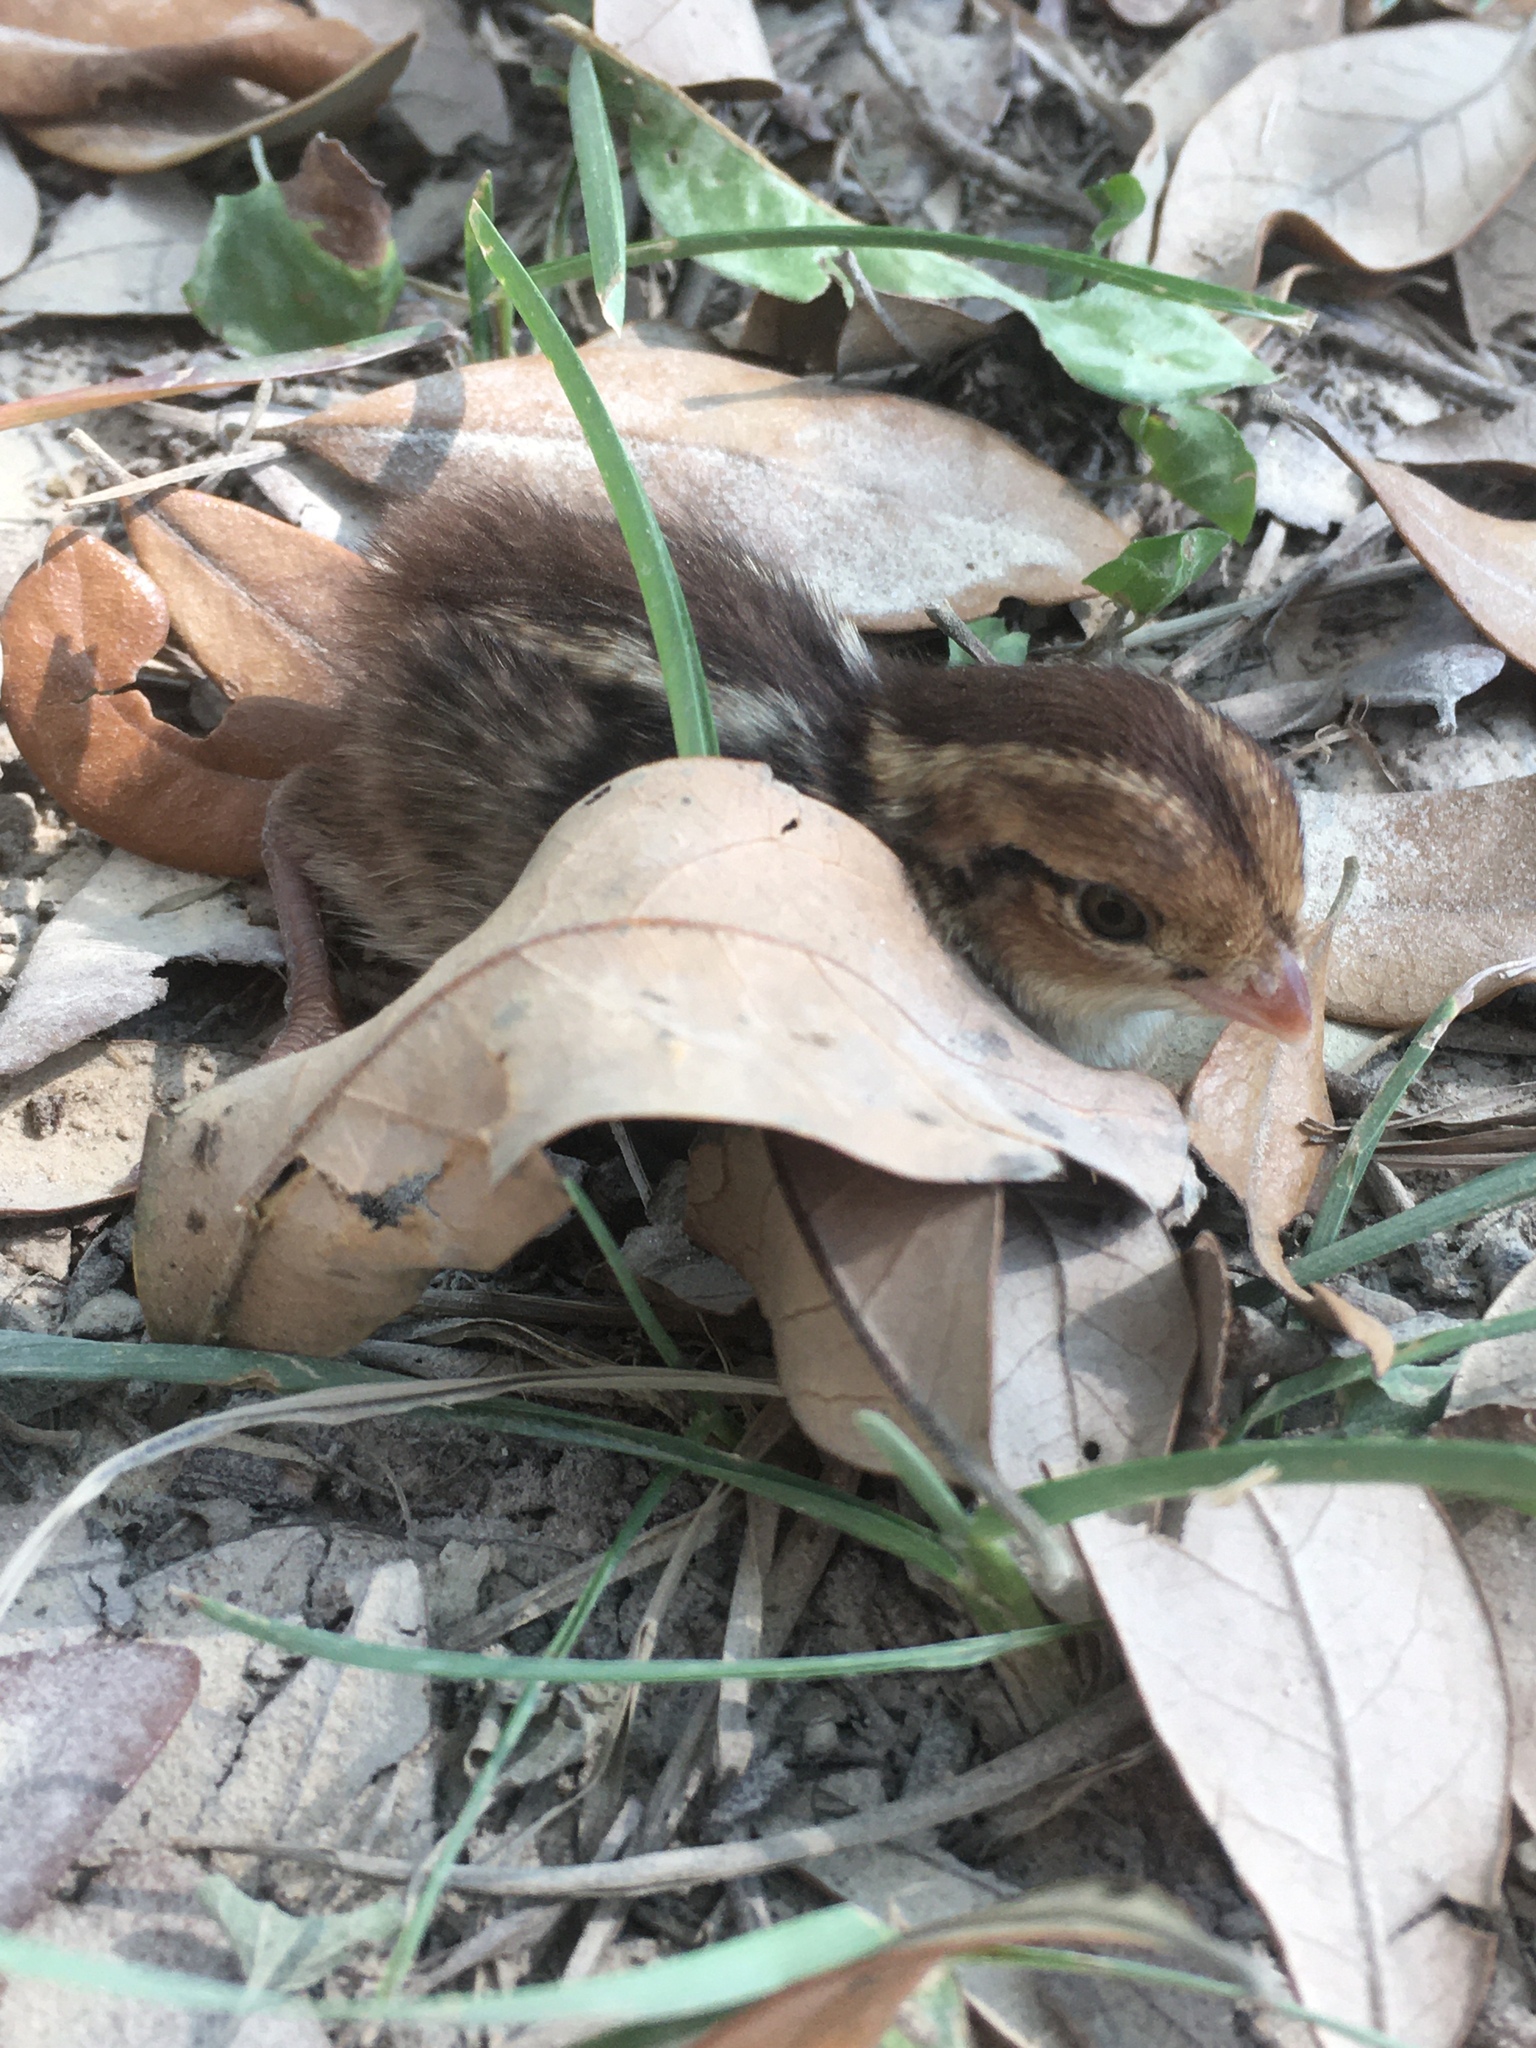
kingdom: Animalia
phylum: Chordata
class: Aves
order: Galliformes
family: Odontophoridae
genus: Colinus
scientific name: Colinus virginianus
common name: Northern bobwhite
